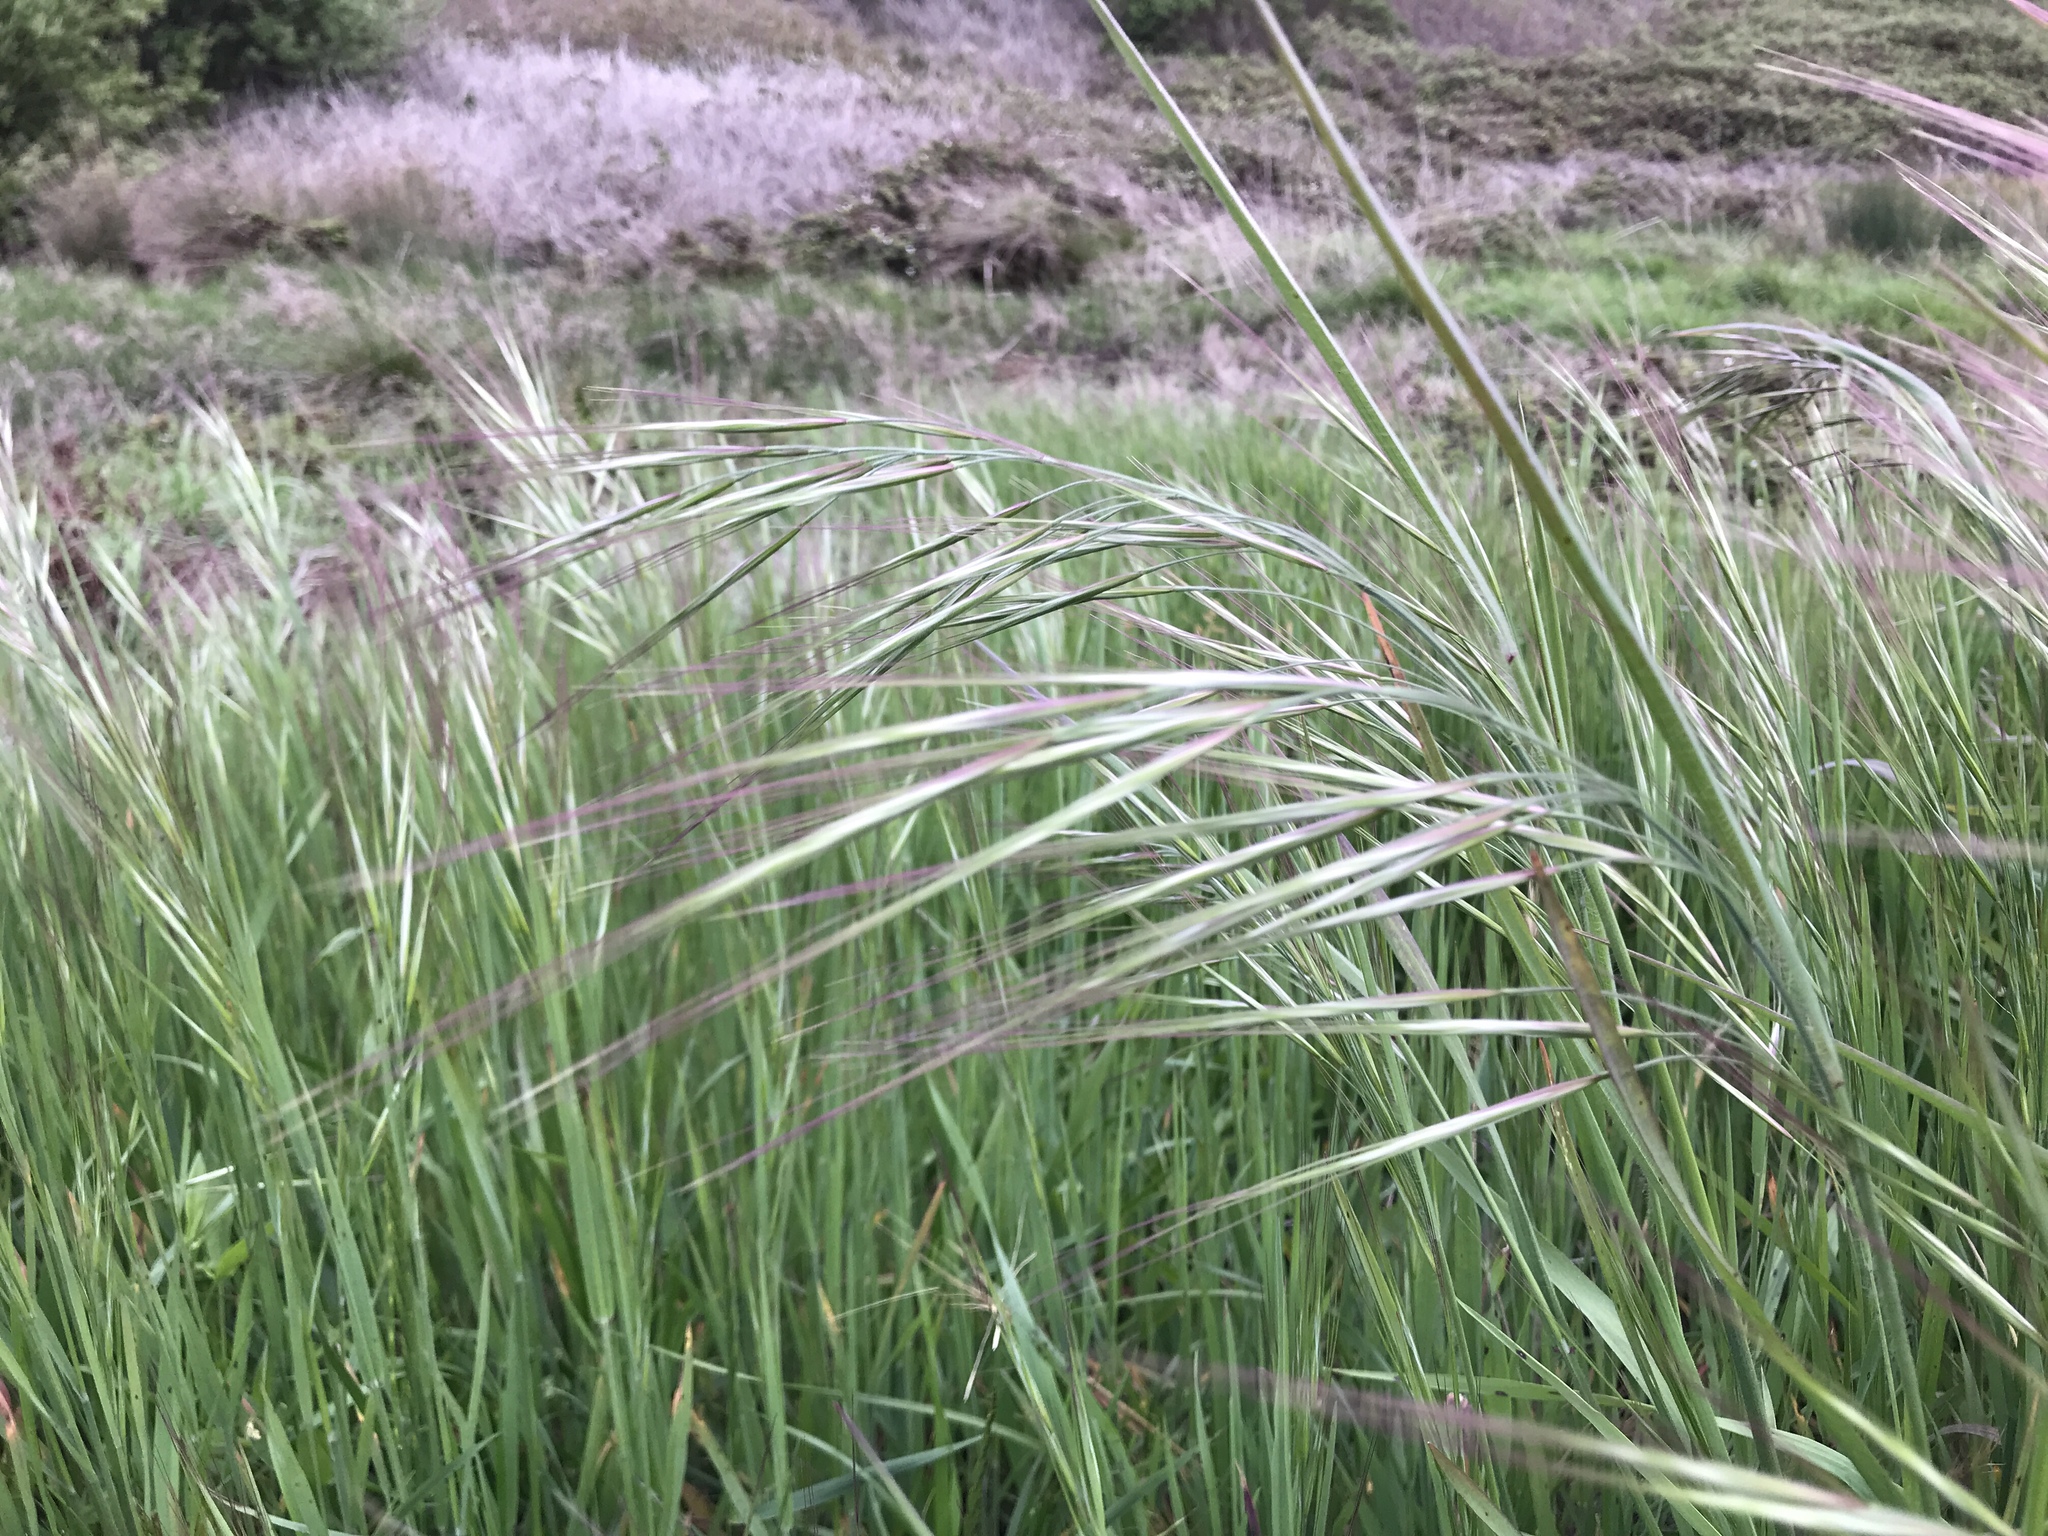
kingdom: Plantae
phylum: Tracheophyta
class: Liliopsida
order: Poales
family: Poaceae
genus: Bromus
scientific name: Bromus diandrus
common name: Ripgut brome
